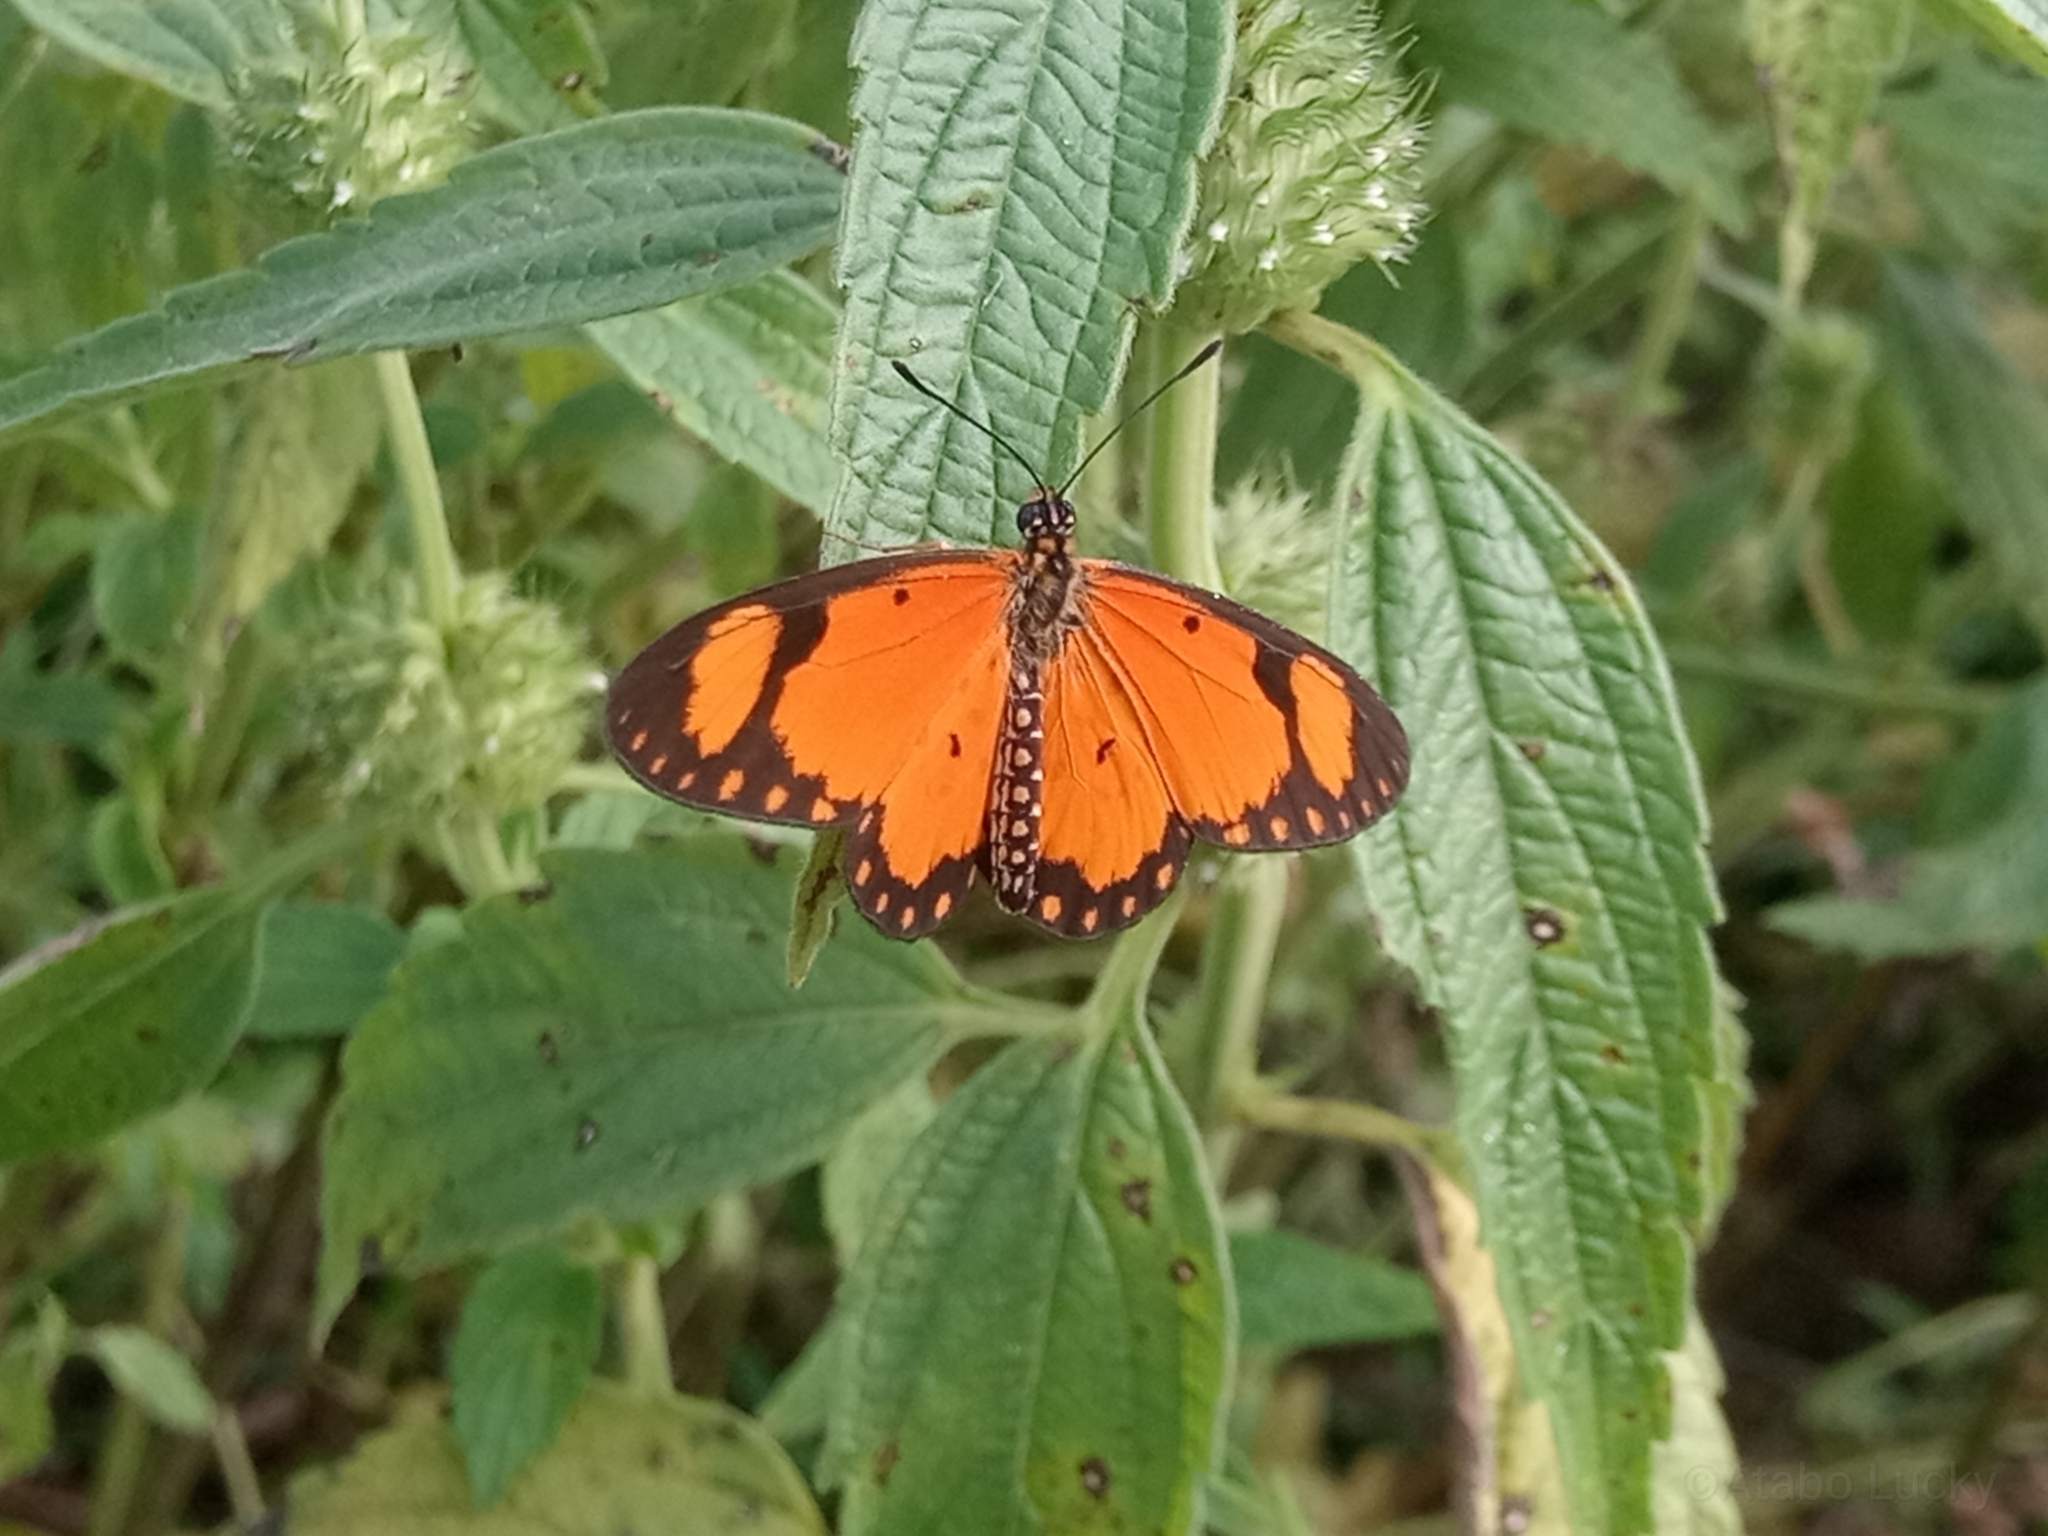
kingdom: Animalia
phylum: Arthropoda
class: Insecta
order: Lepidoptera
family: Nymphalidae
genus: Acraea
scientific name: Acraea Telchinia serena
